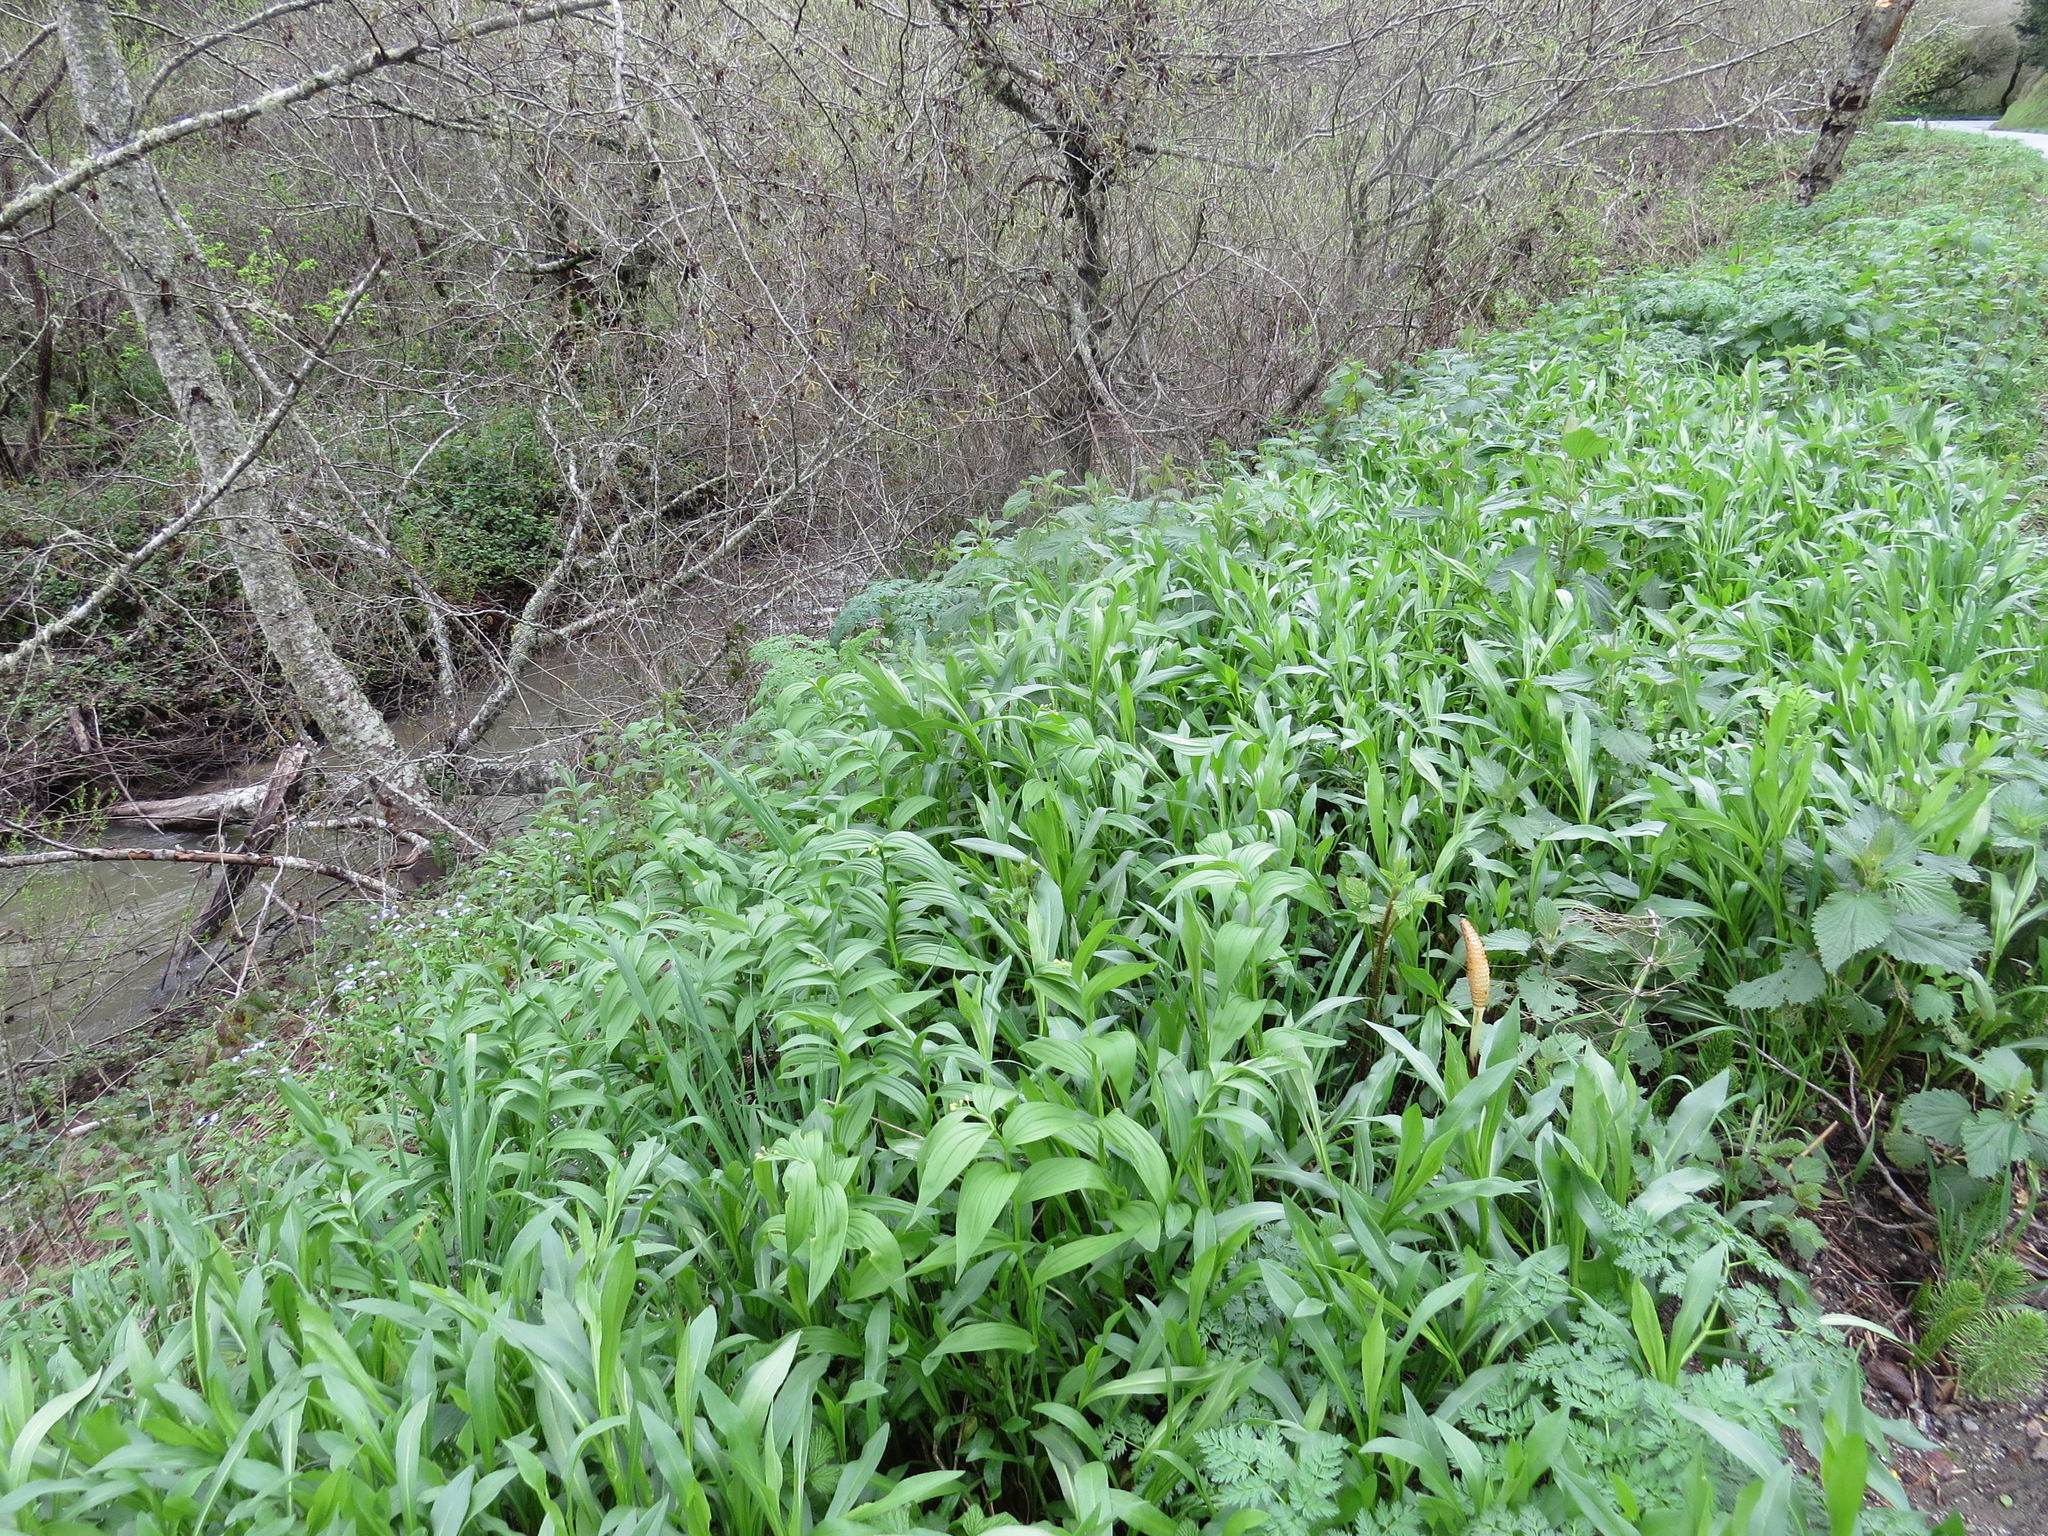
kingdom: Plantae
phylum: Tracheophyta
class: Liliopsida
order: Asparagales
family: Asparagaceae
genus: Maianthemum
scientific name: Maianthemum stellatum
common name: Little false solomon's seal
